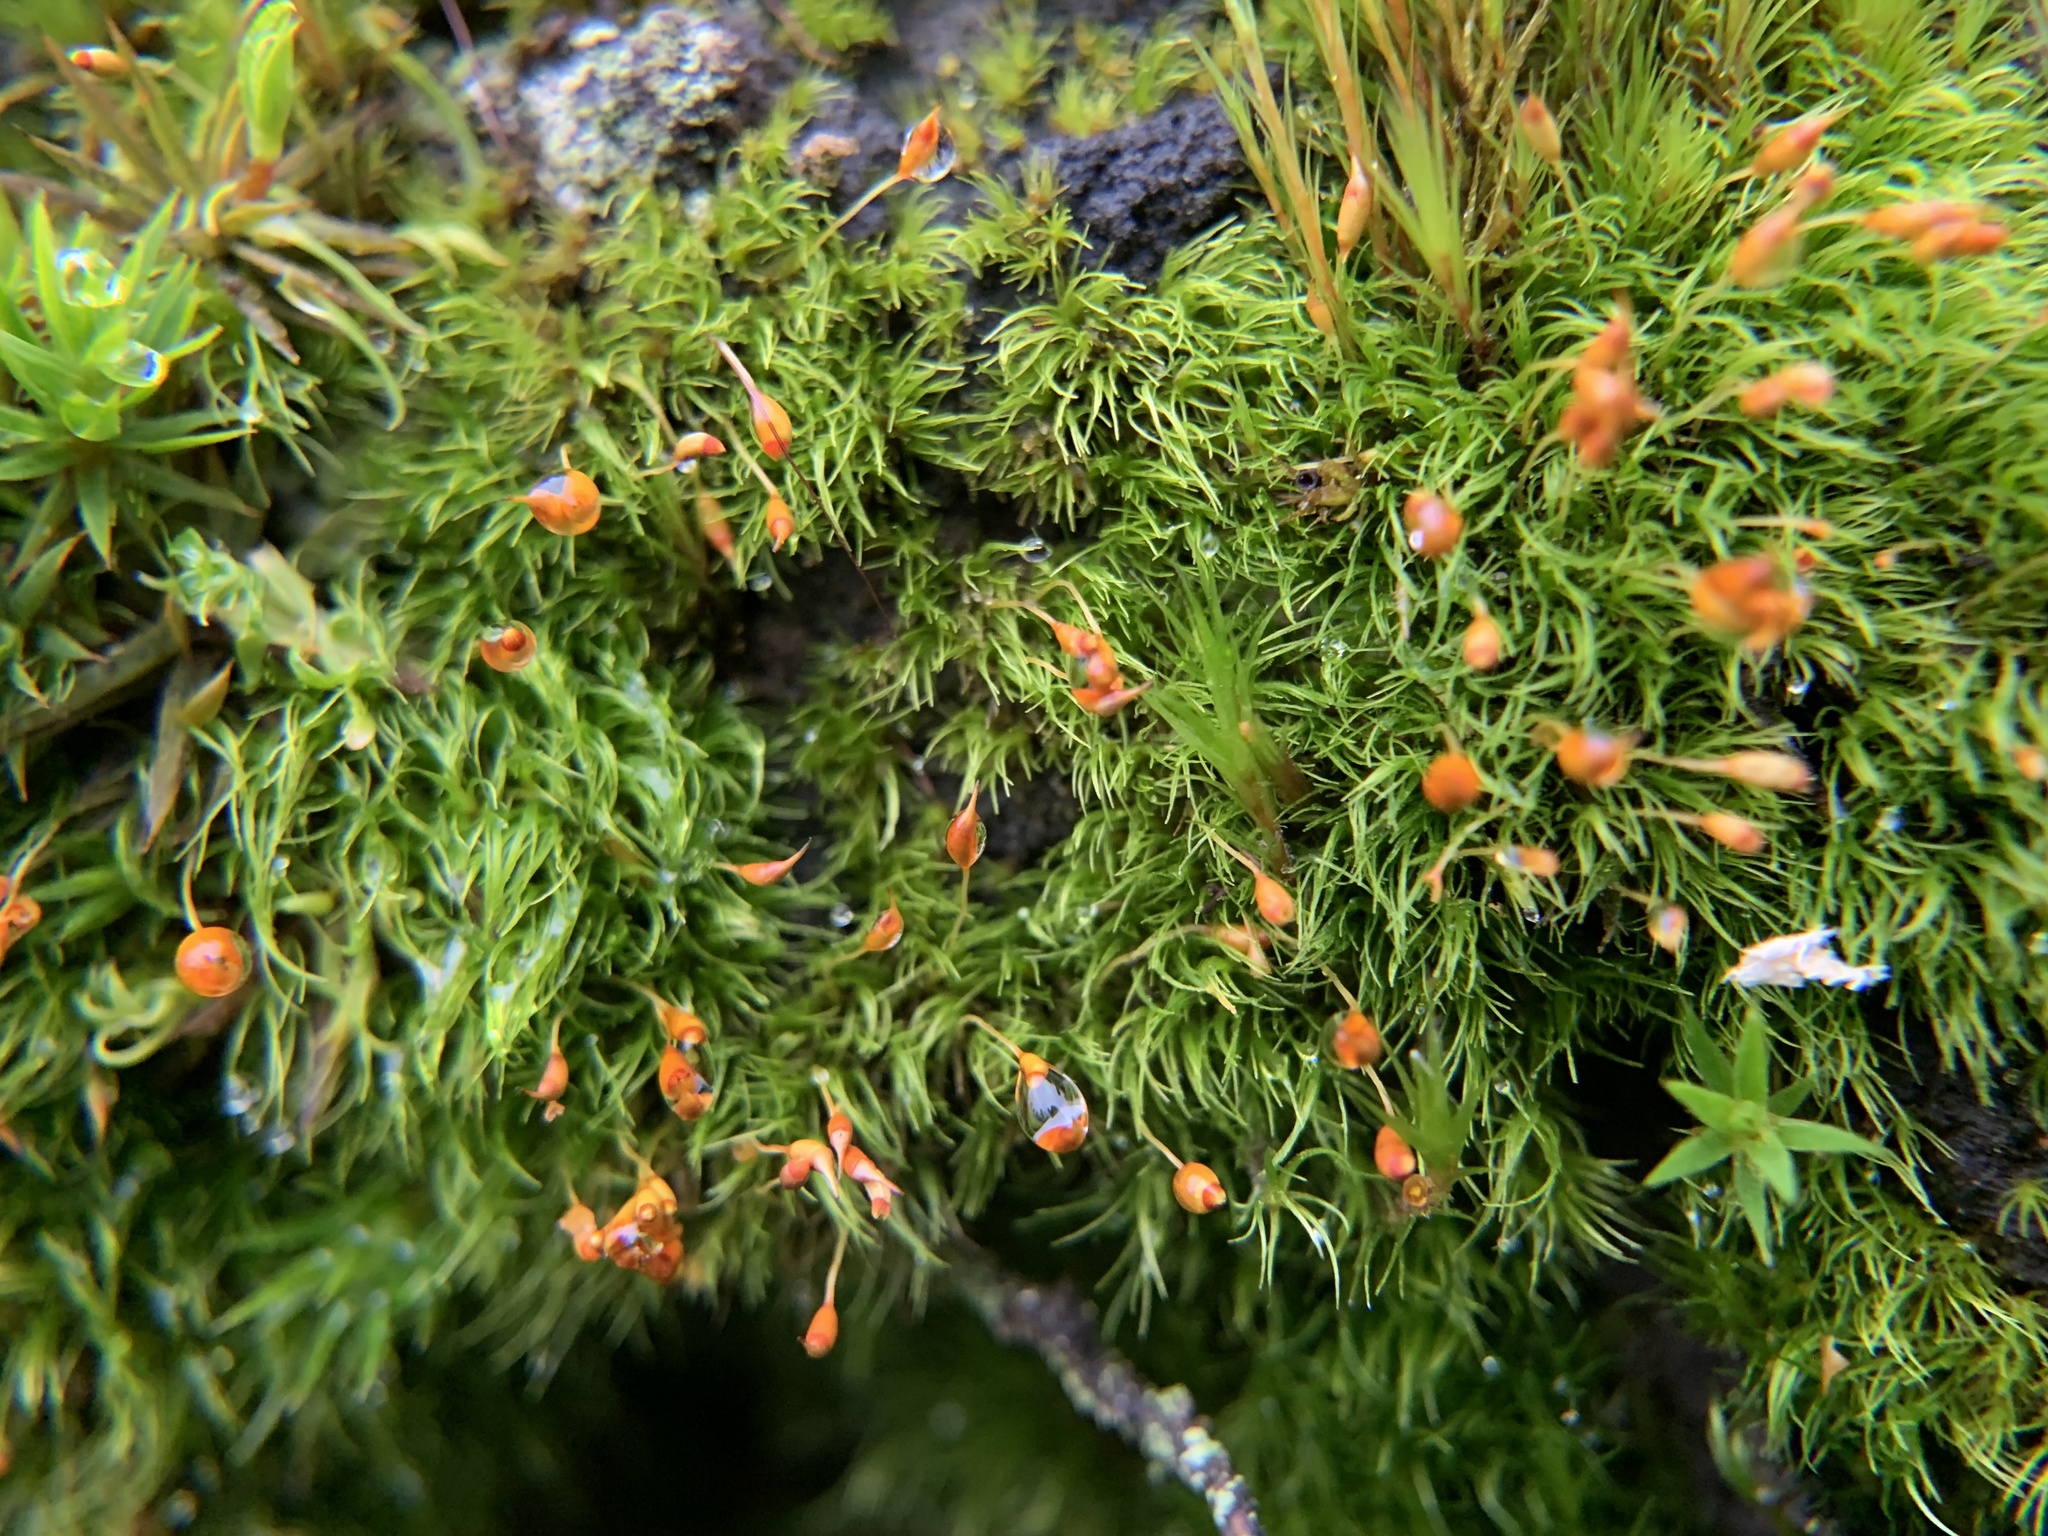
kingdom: Plantae
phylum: Bryophyta
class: Bryopsida
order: Dicranales
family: Dicranellaceae
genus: Dicranella
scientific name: Dicranella heteromalla
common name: Silky forklet moss
